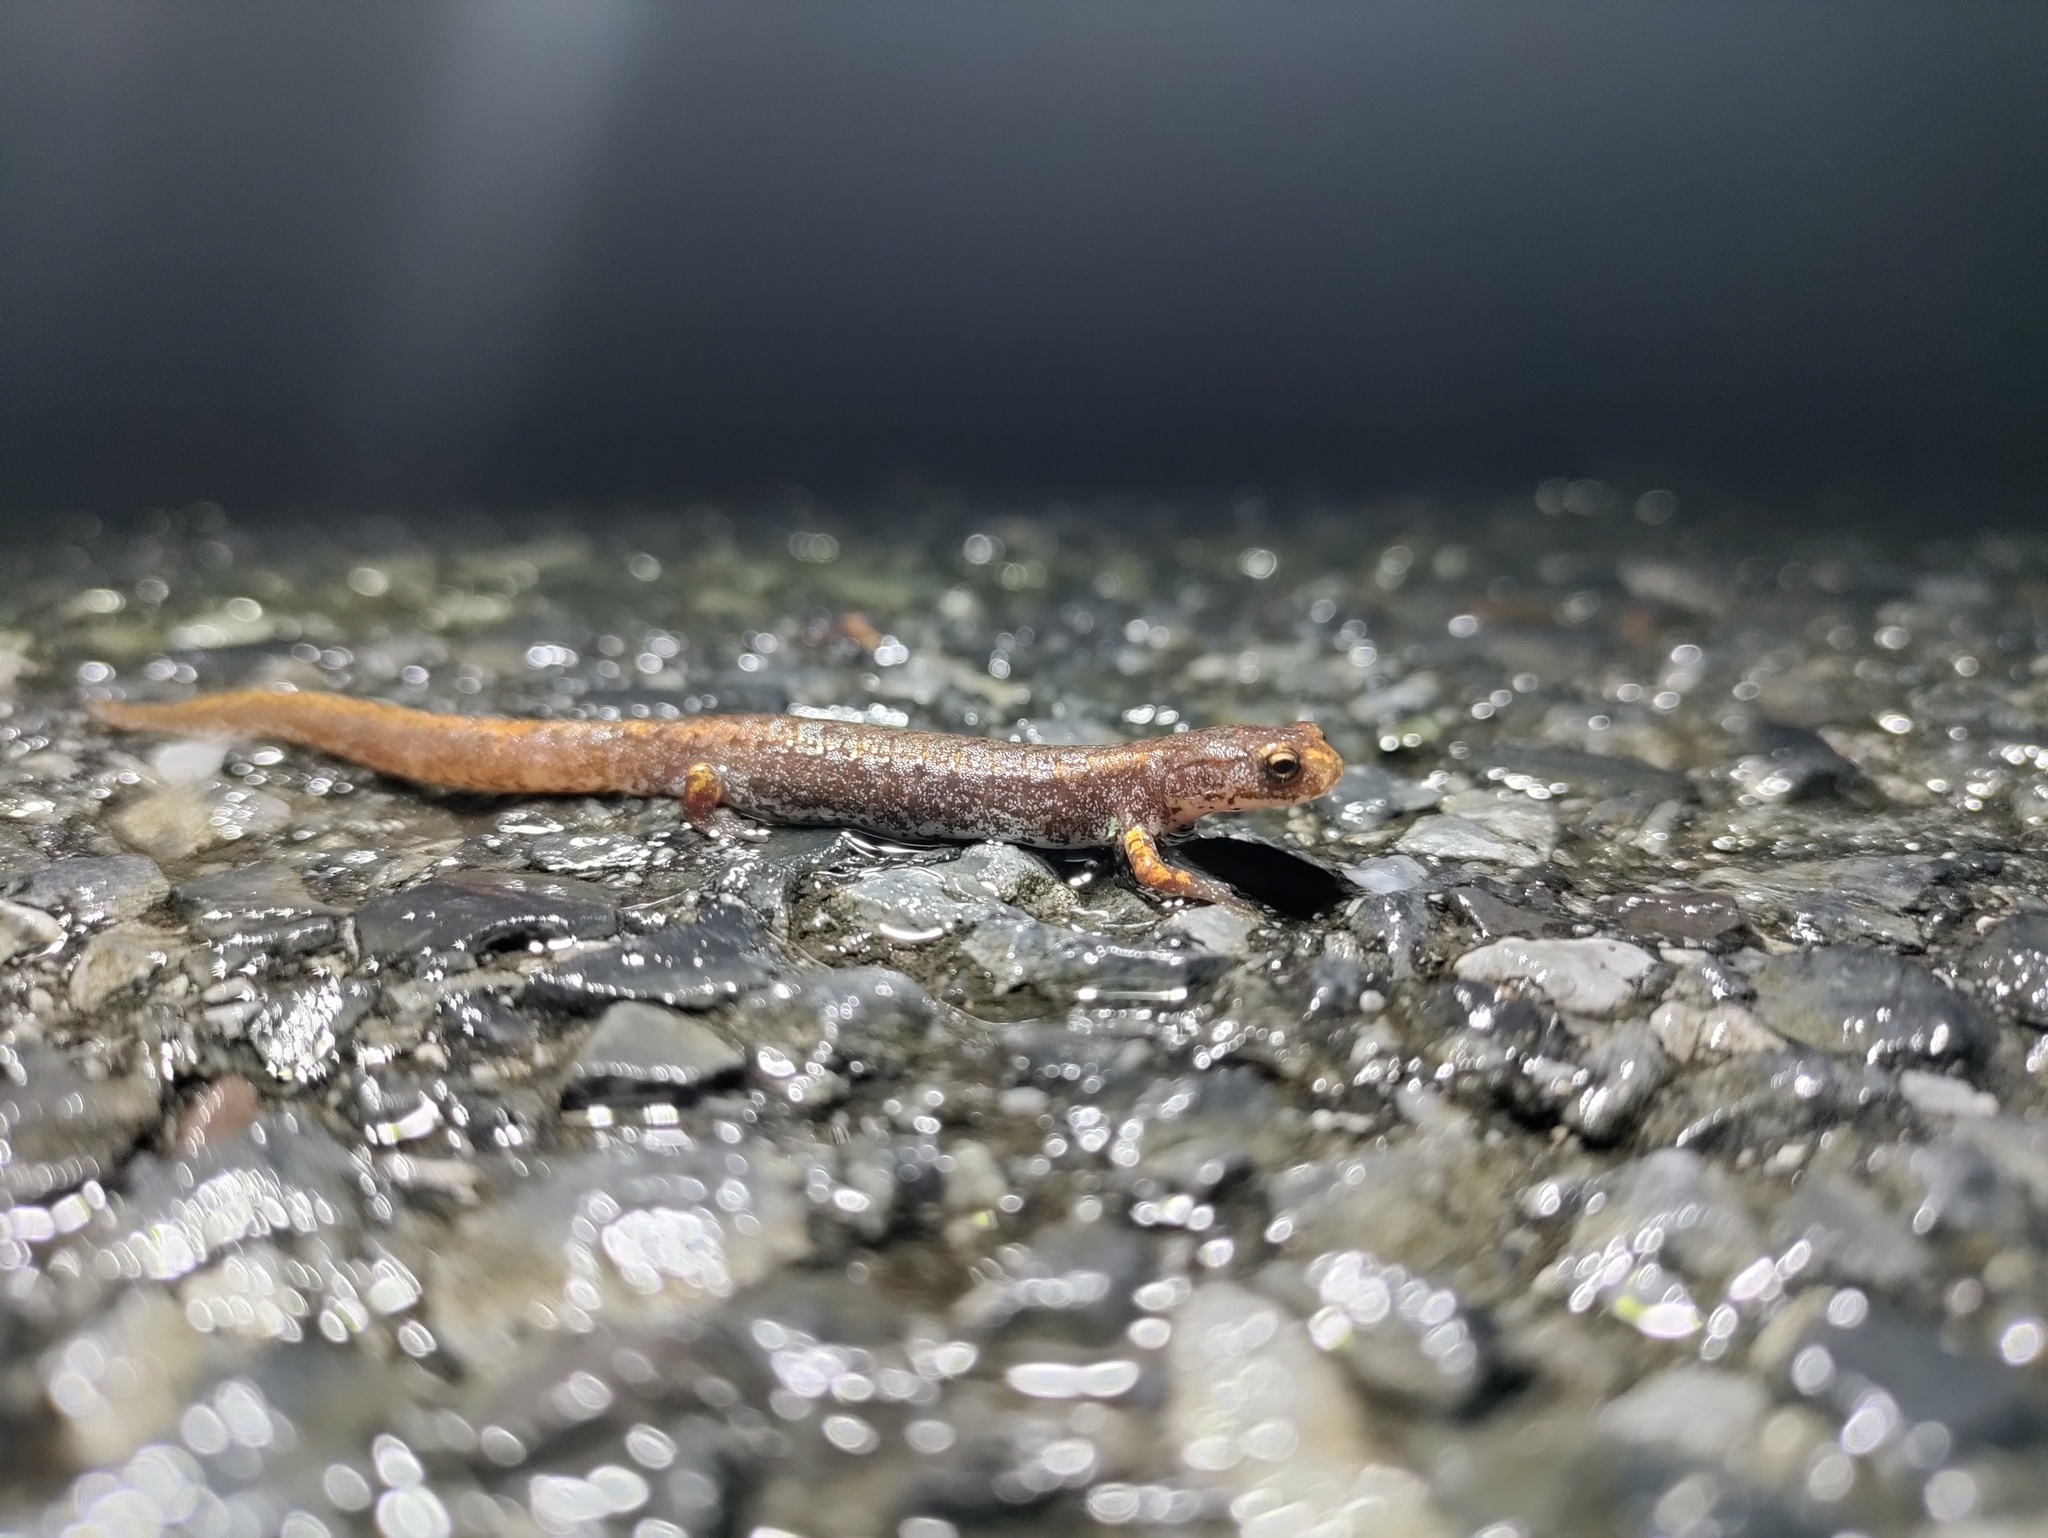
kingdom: Animalia
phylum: Chordata
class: Amphibia
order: Caudata
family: Plethodontidae
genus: Hemidactylium
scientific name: Hemidactylium scutatum
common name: Four-toed salamander
